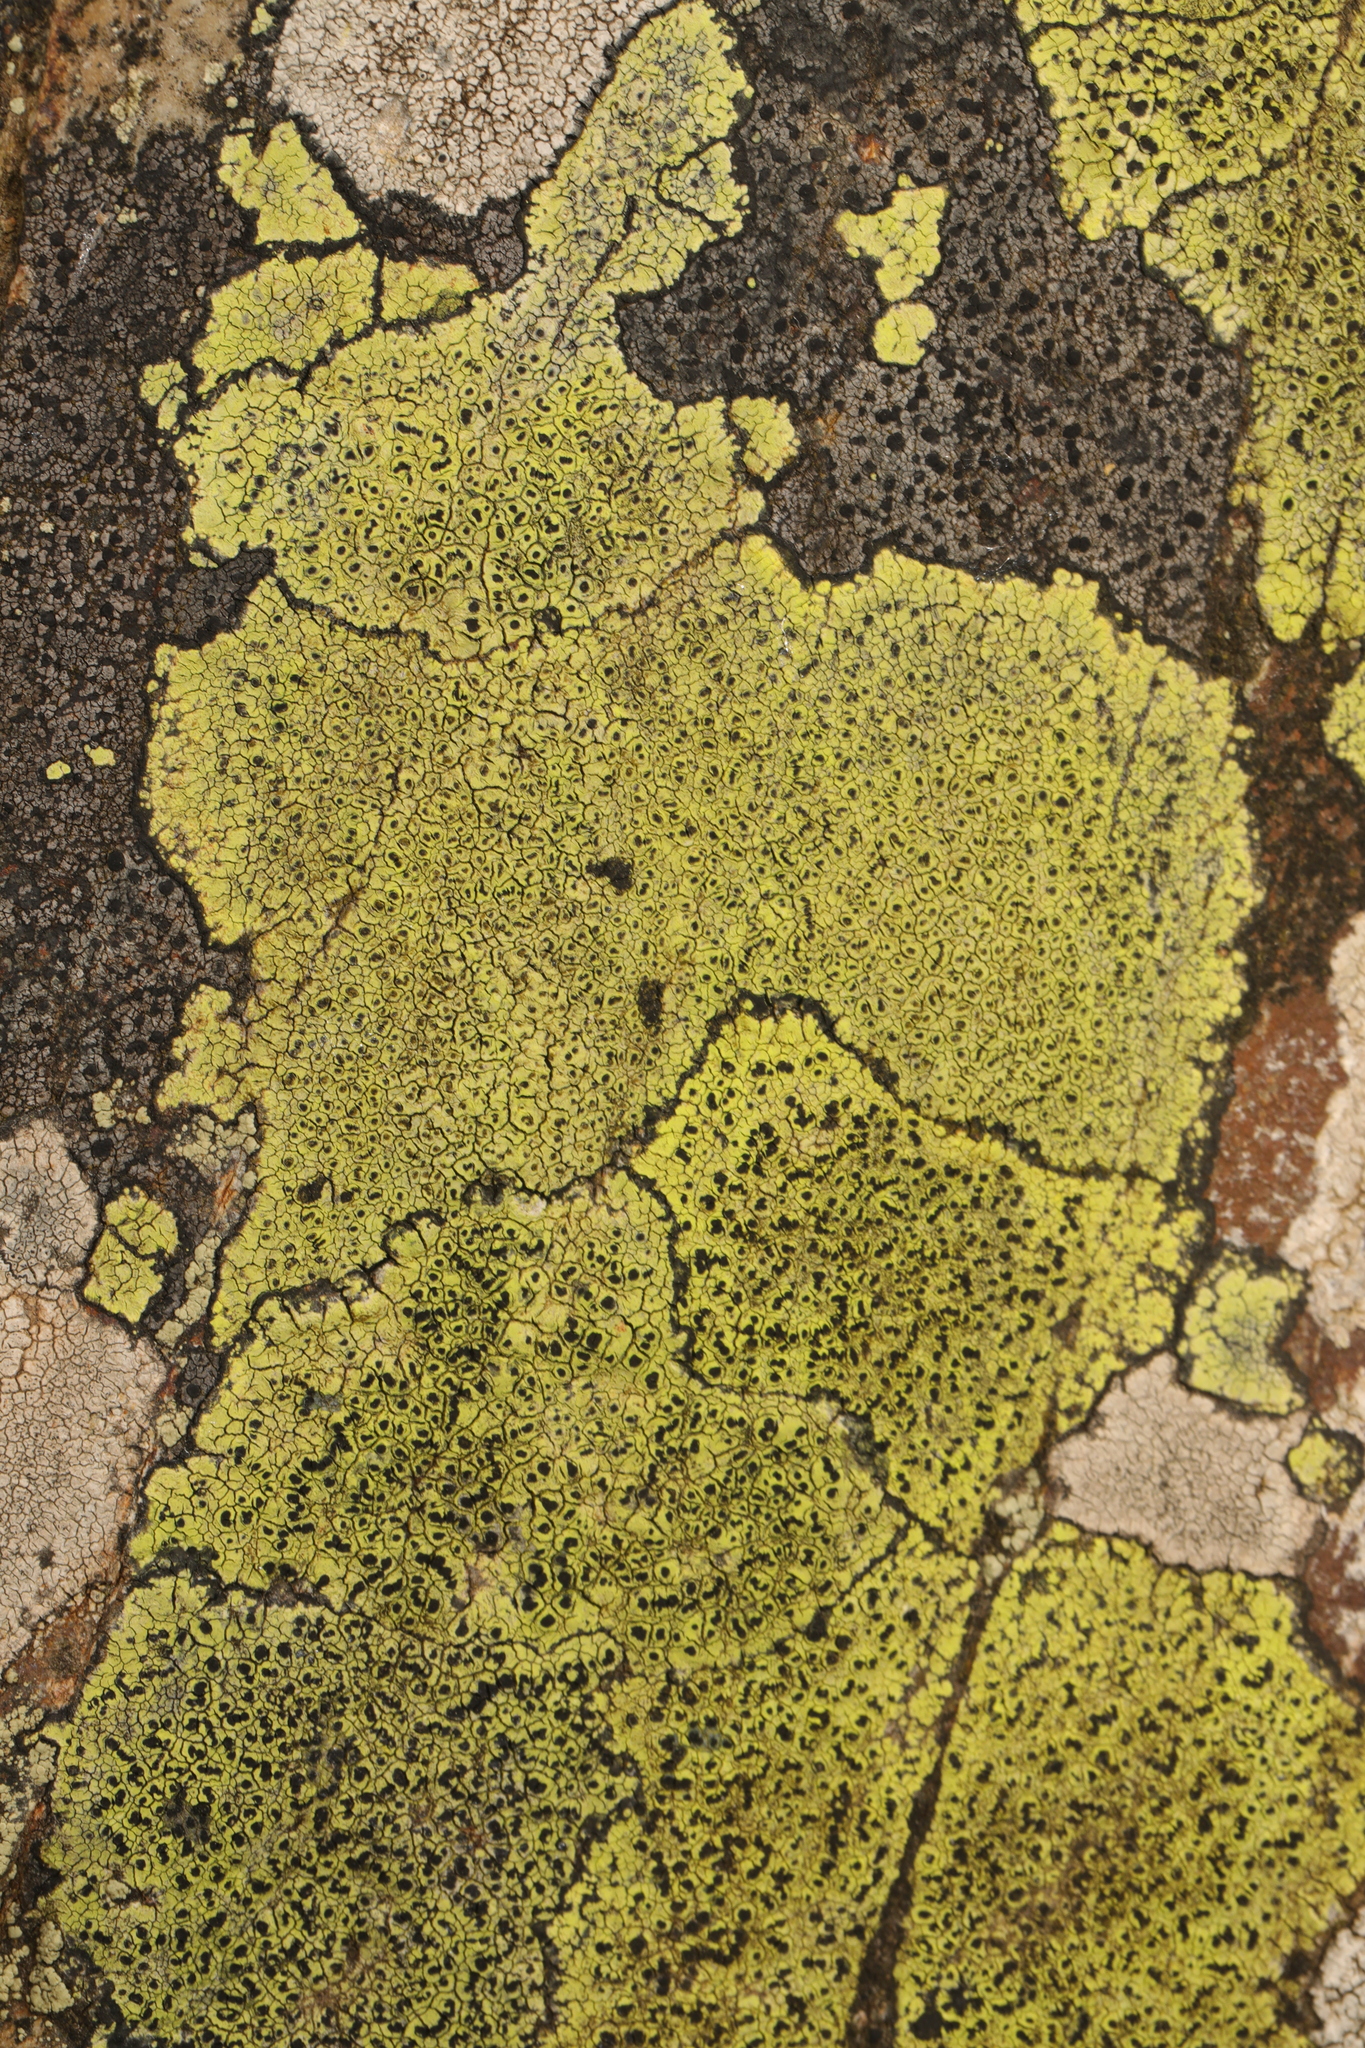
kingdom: Fungi
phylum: Ascomycota
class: Lecanoromycetes
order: Rhizocarpales
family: Rhizocarpaceae
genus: Rhizocarpon
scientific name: Rhizocarpon geographicum
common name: Yellow map lichen
